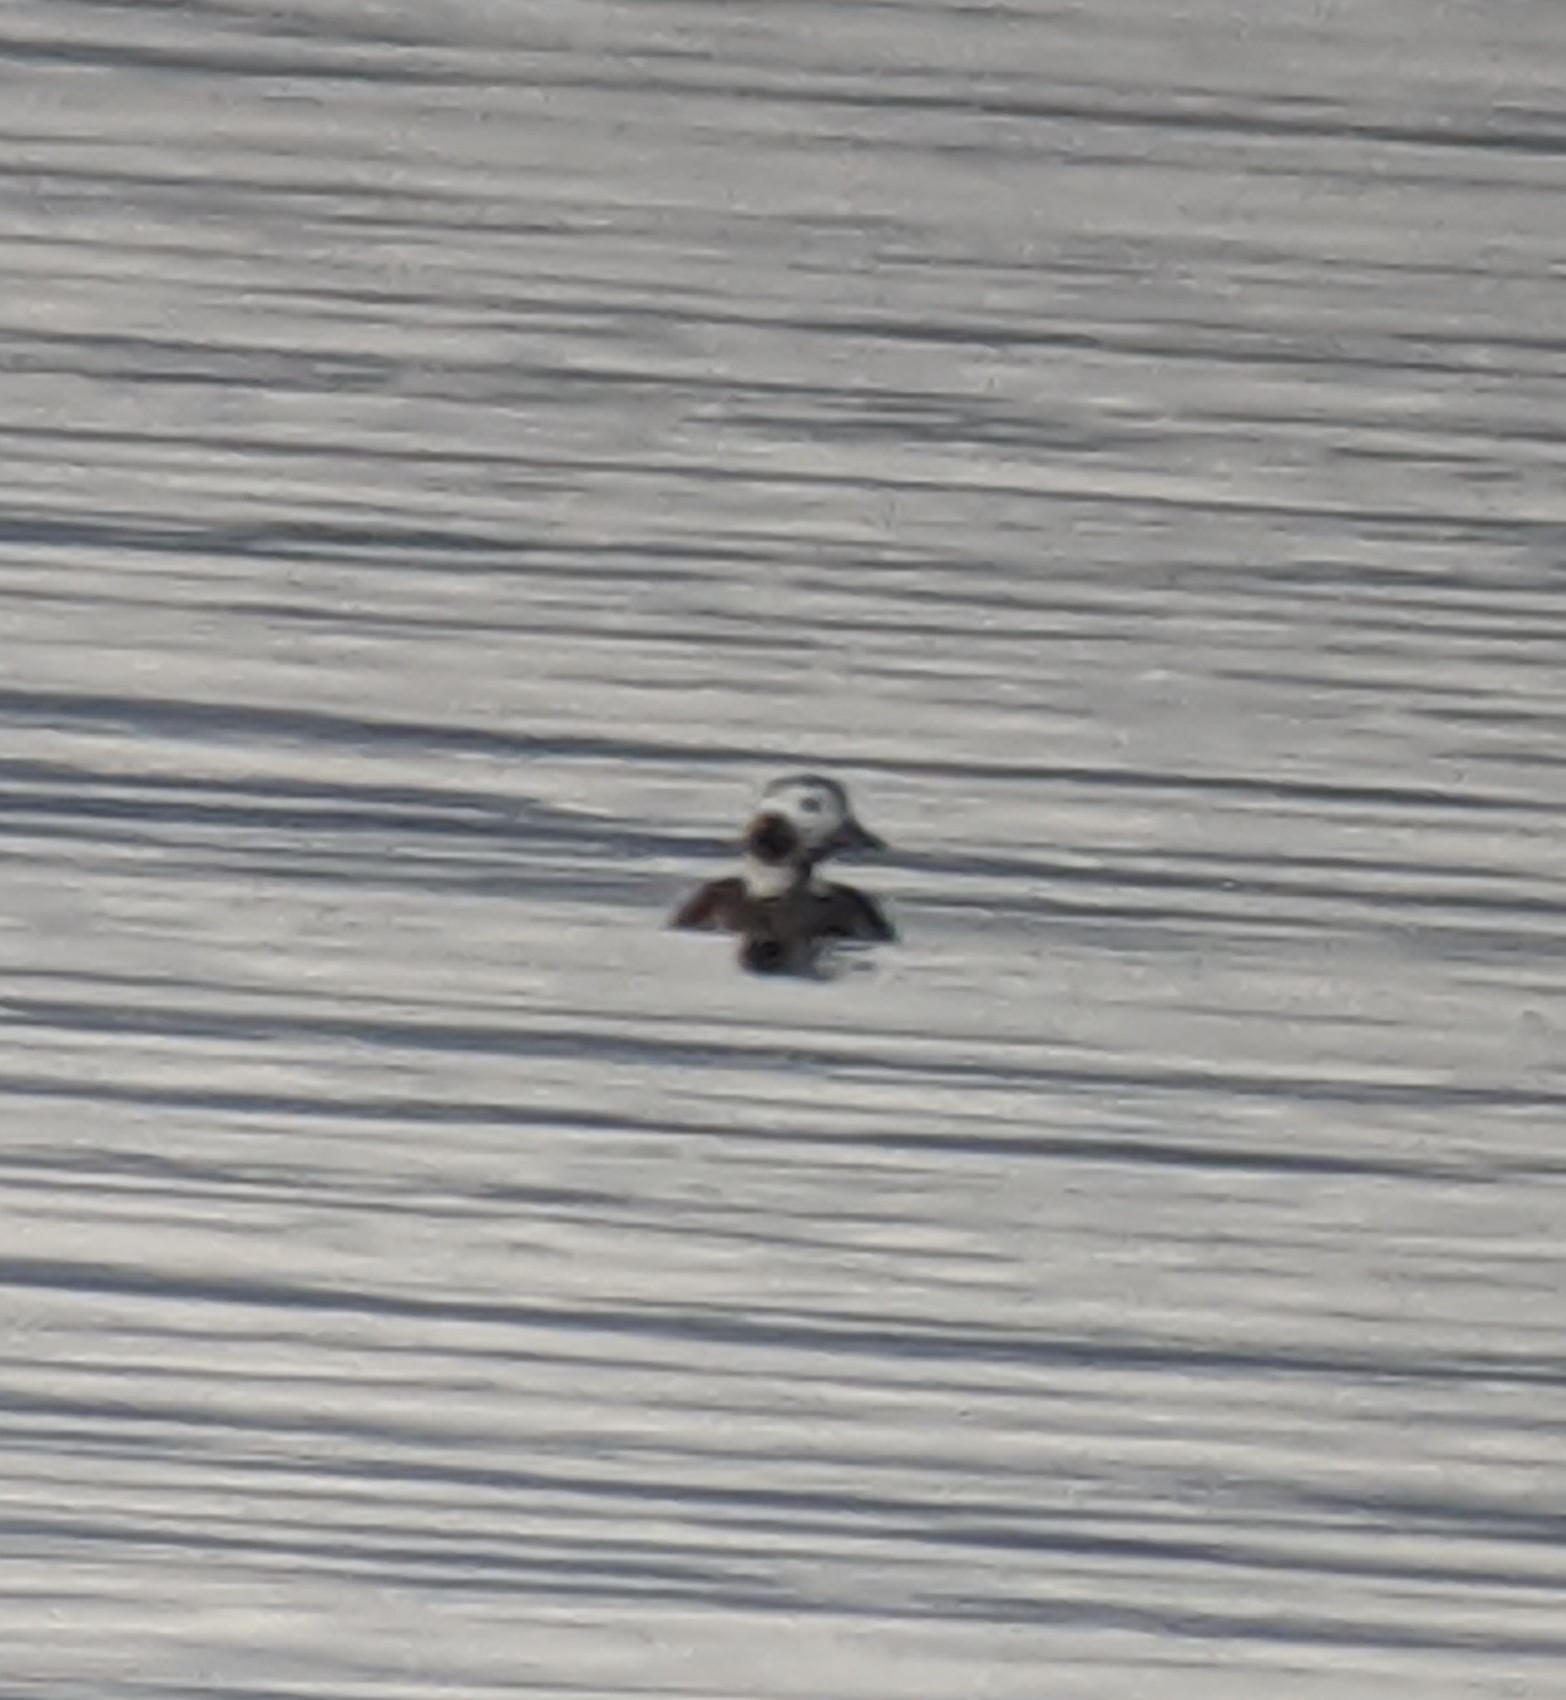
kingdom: Animalia
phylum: Chordata
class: Aves
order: Anseriformes
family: Anatidae
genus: Clangula
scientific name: Clangula hyemalis
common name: Long-tailed duck
